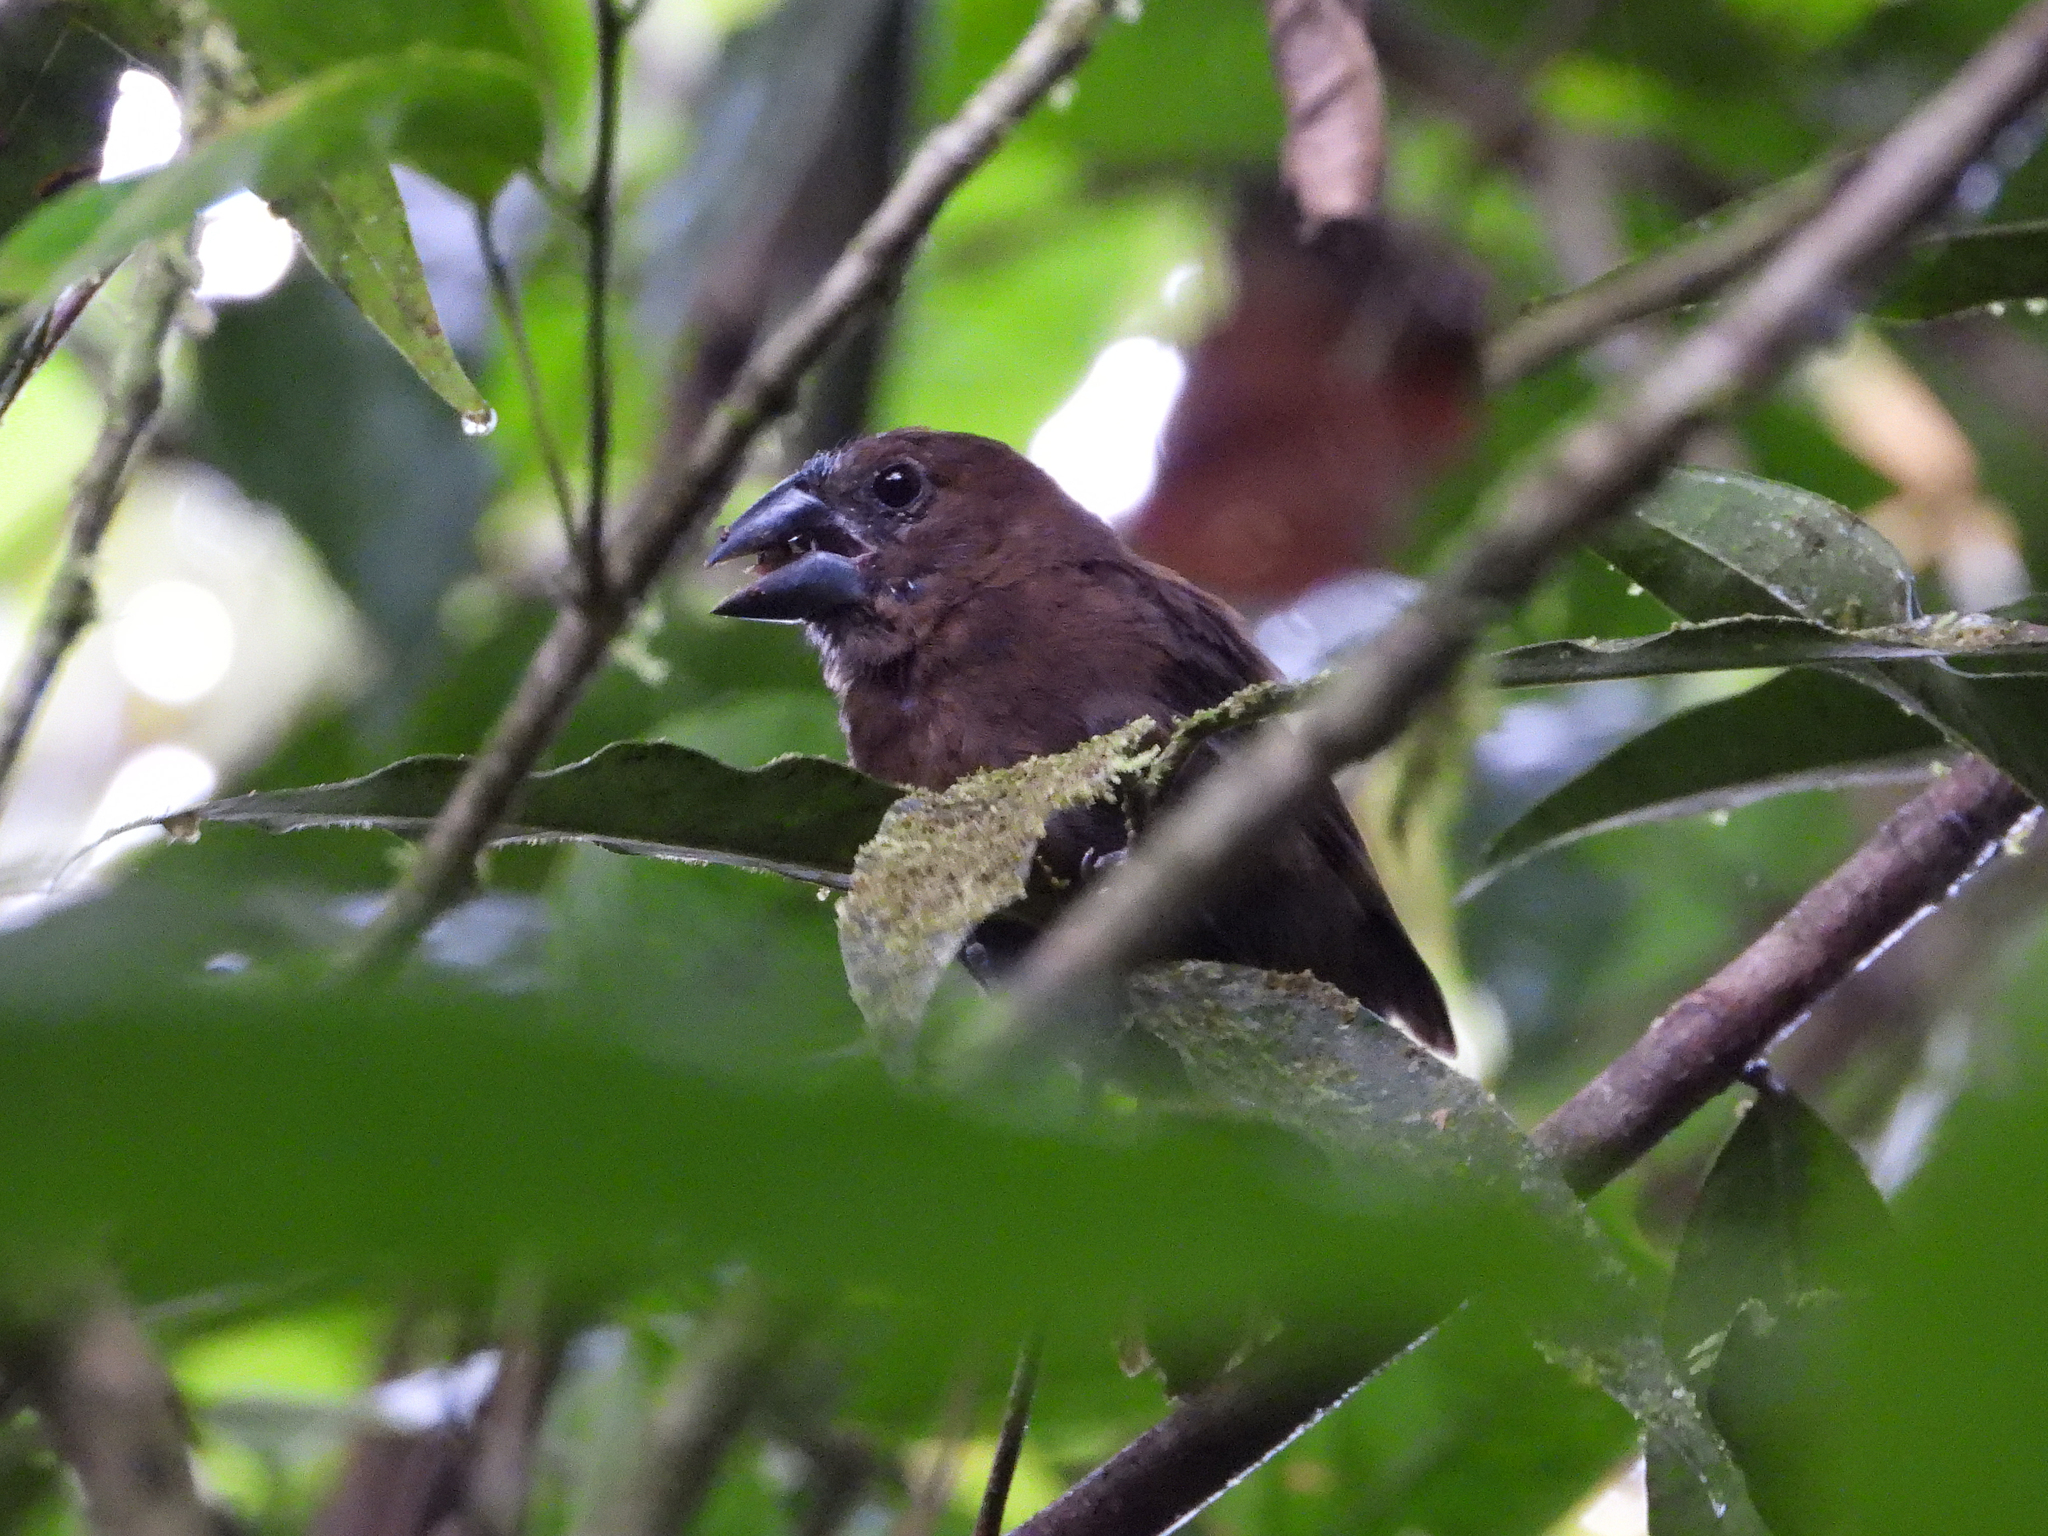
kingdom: Animalia
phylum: Chordata
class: Aves
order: Passeriformes
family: Cardinalidae
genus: Cyanocompsa
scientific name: Cyanocompsa cyanoides
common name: Blue-black grosbeak
